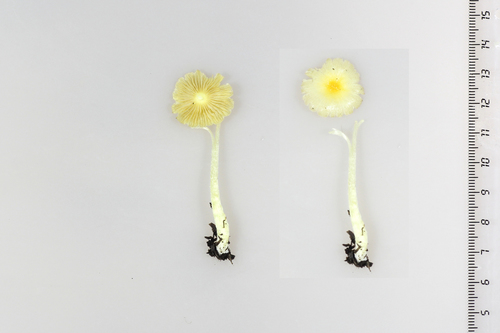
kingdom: Fungi
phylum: Basidiomycota
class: Agaricomycetes
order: Agaricales
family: Bolbitiaceae
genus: Bolbitius
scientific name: Bolbitius titubans
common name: Yellow fieldcap
